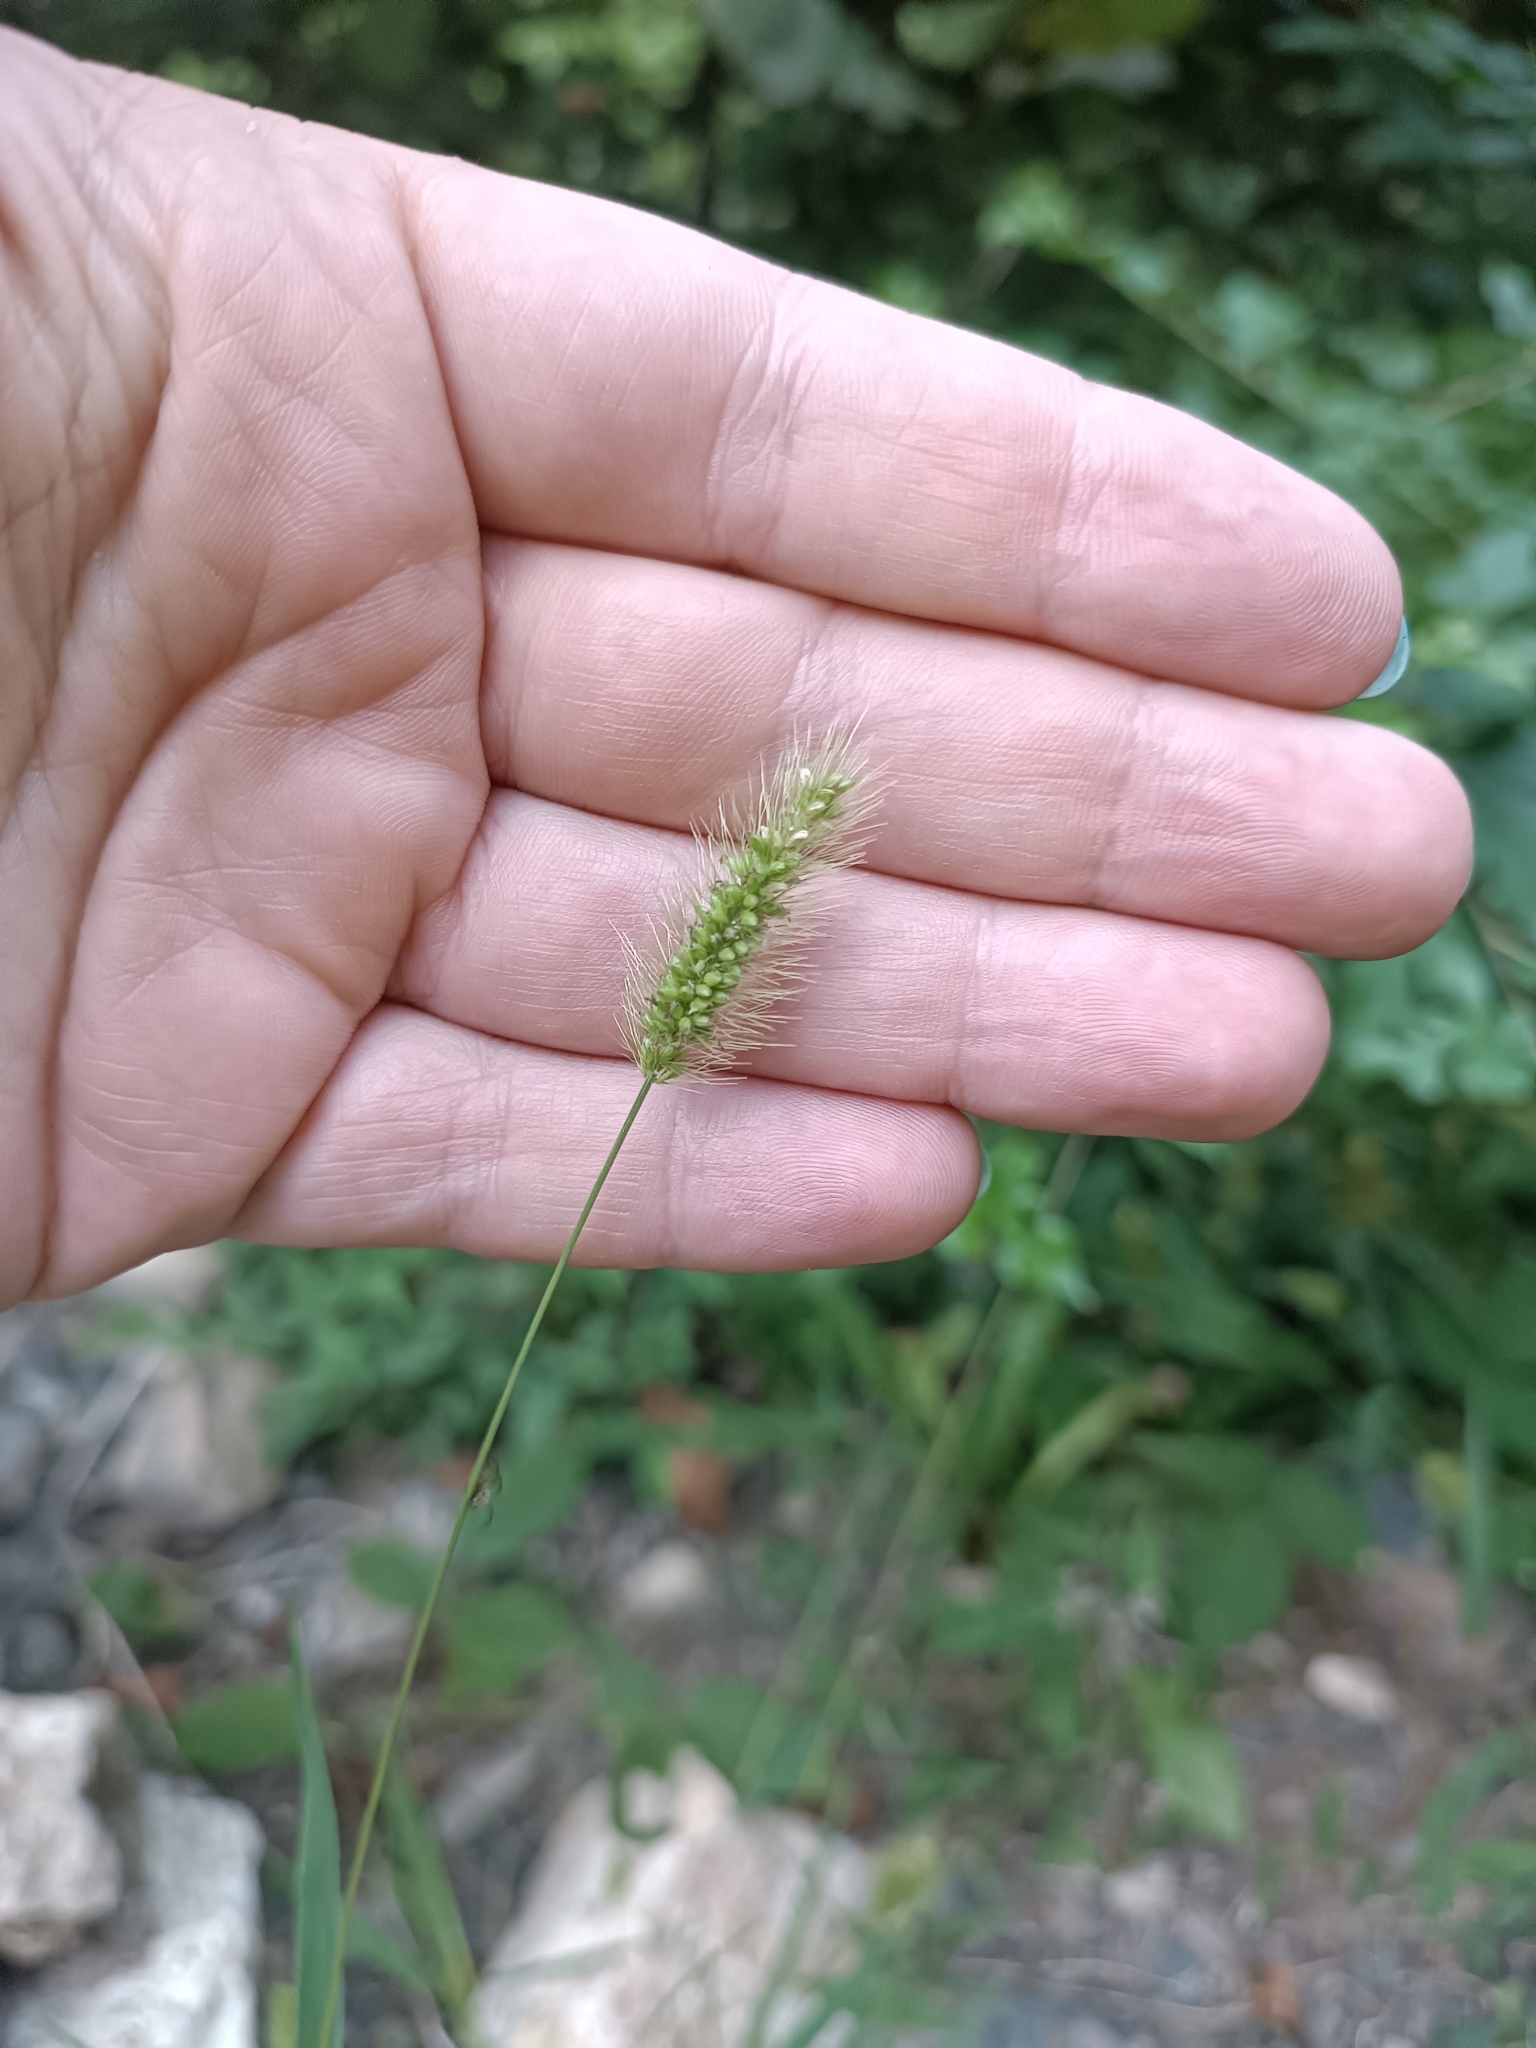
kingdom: Plantae
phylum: Tracheophyta
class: Liliopsida
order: Poales
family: Poaceae
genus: Setaria
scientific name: Setaria viridis
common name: Green bristlegrass
